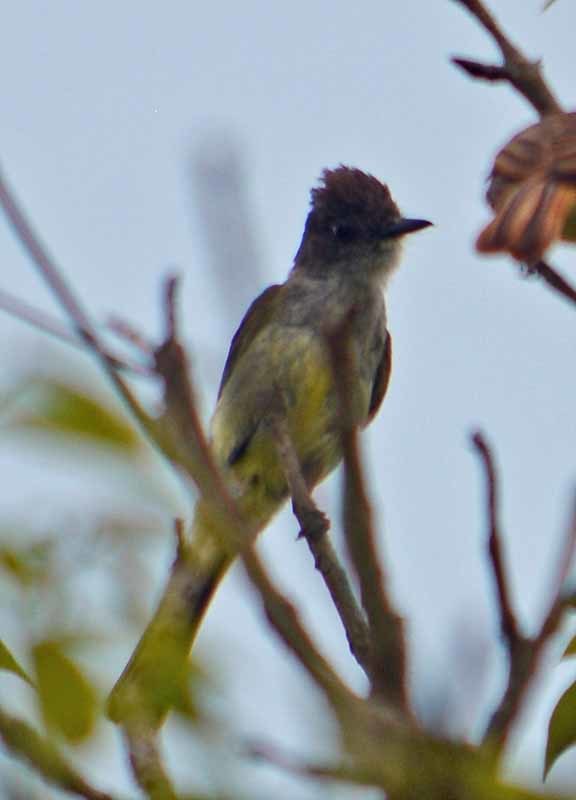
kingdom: Animalia
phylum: Chordata
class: Aves
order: Passeriformes
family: Tyrannidae
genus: Myiarchus
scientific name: Myiarchus tuberculifer
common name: Dusky-capped flycatcher
